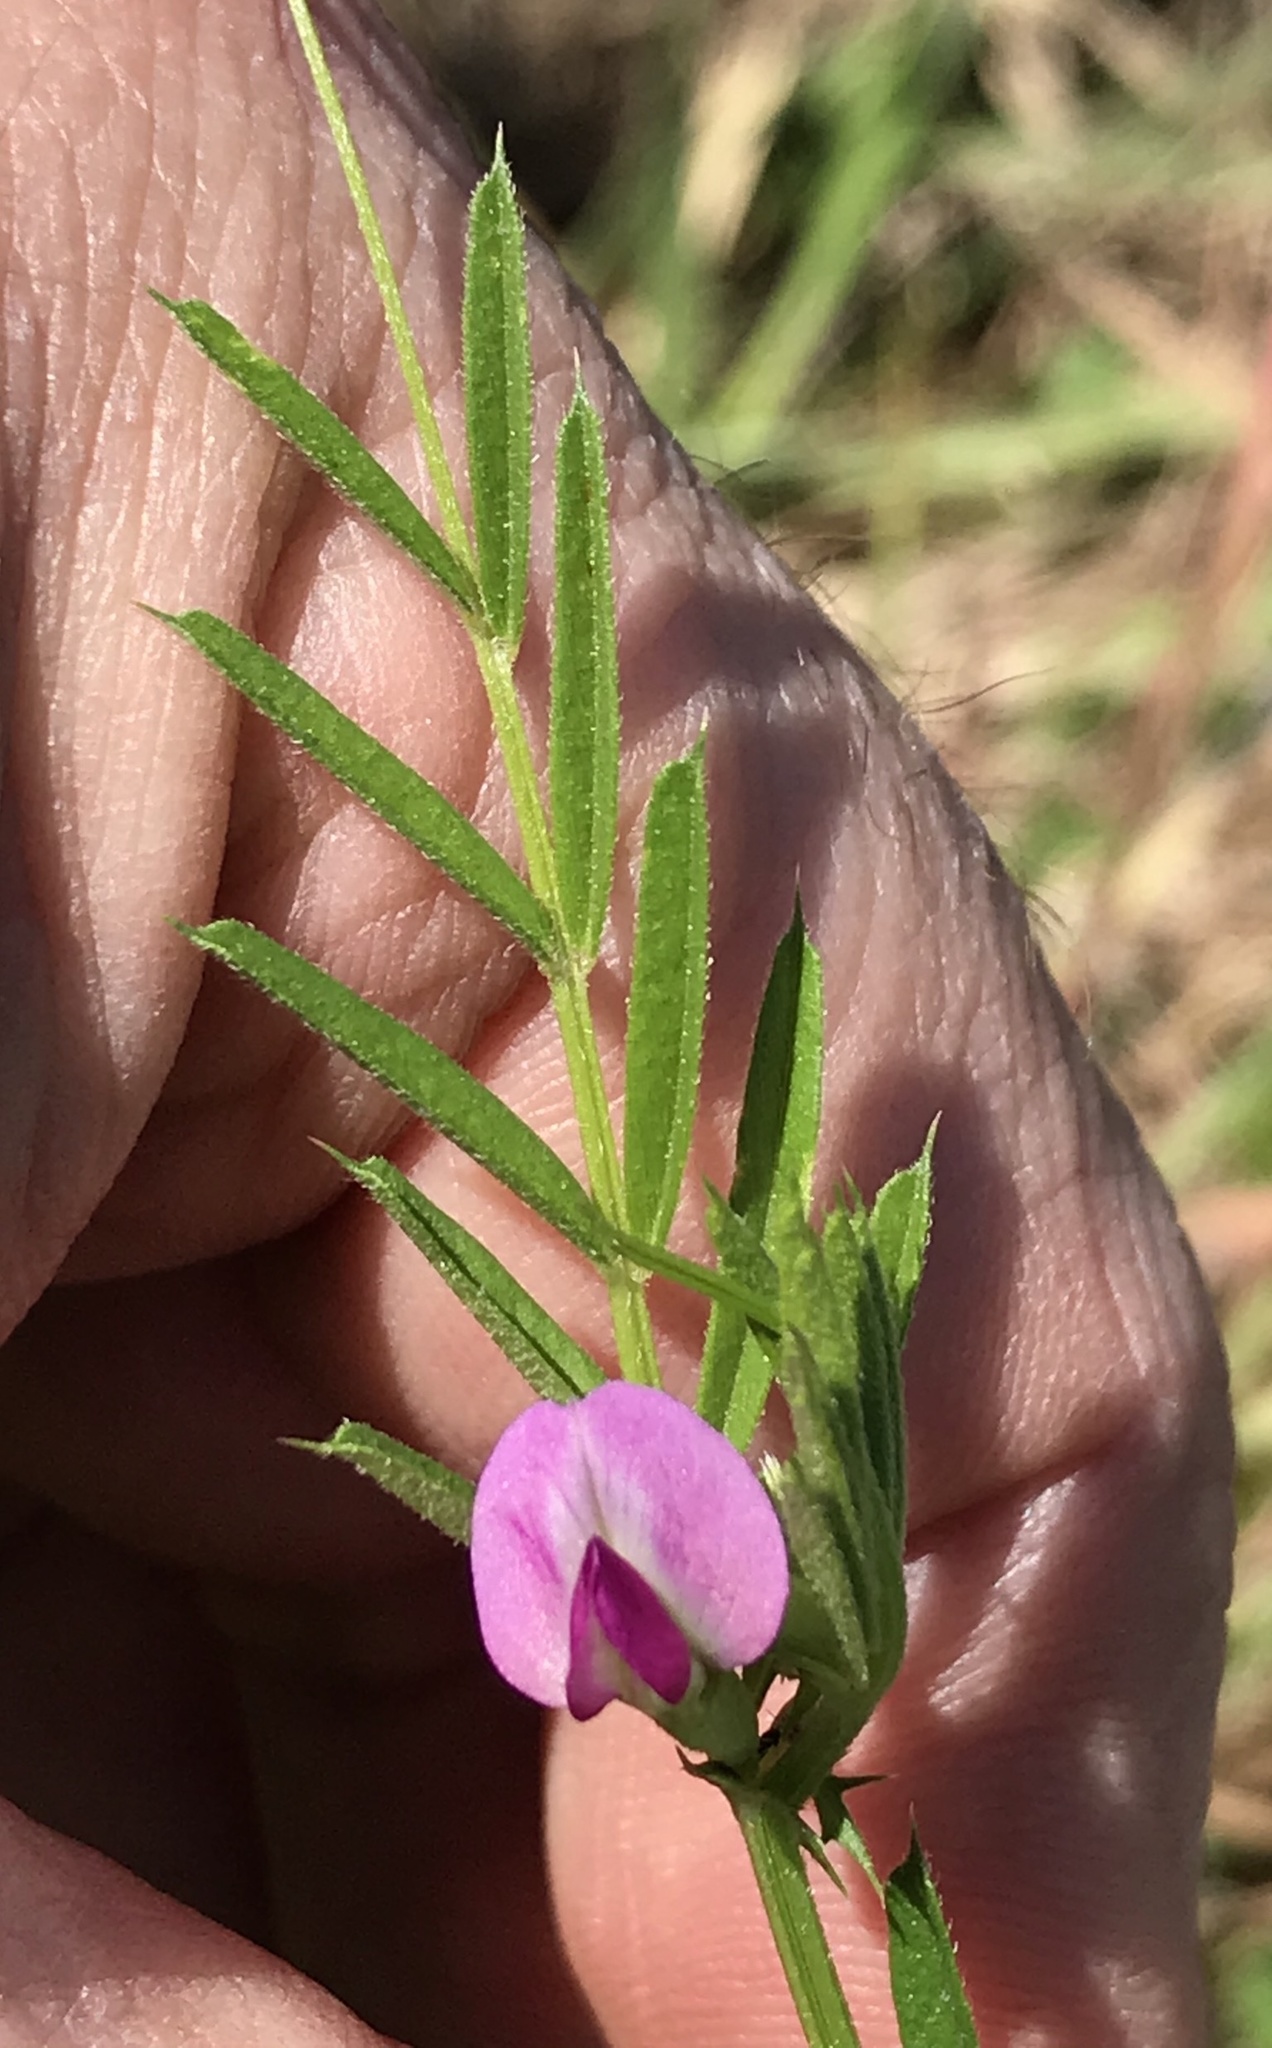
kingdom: Plantae
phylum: Tracheophyta
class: Magnoliopsida
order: Fabales
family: Fabaceae
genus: Vicia
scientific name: Vicia sativa
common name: Garden vetch
